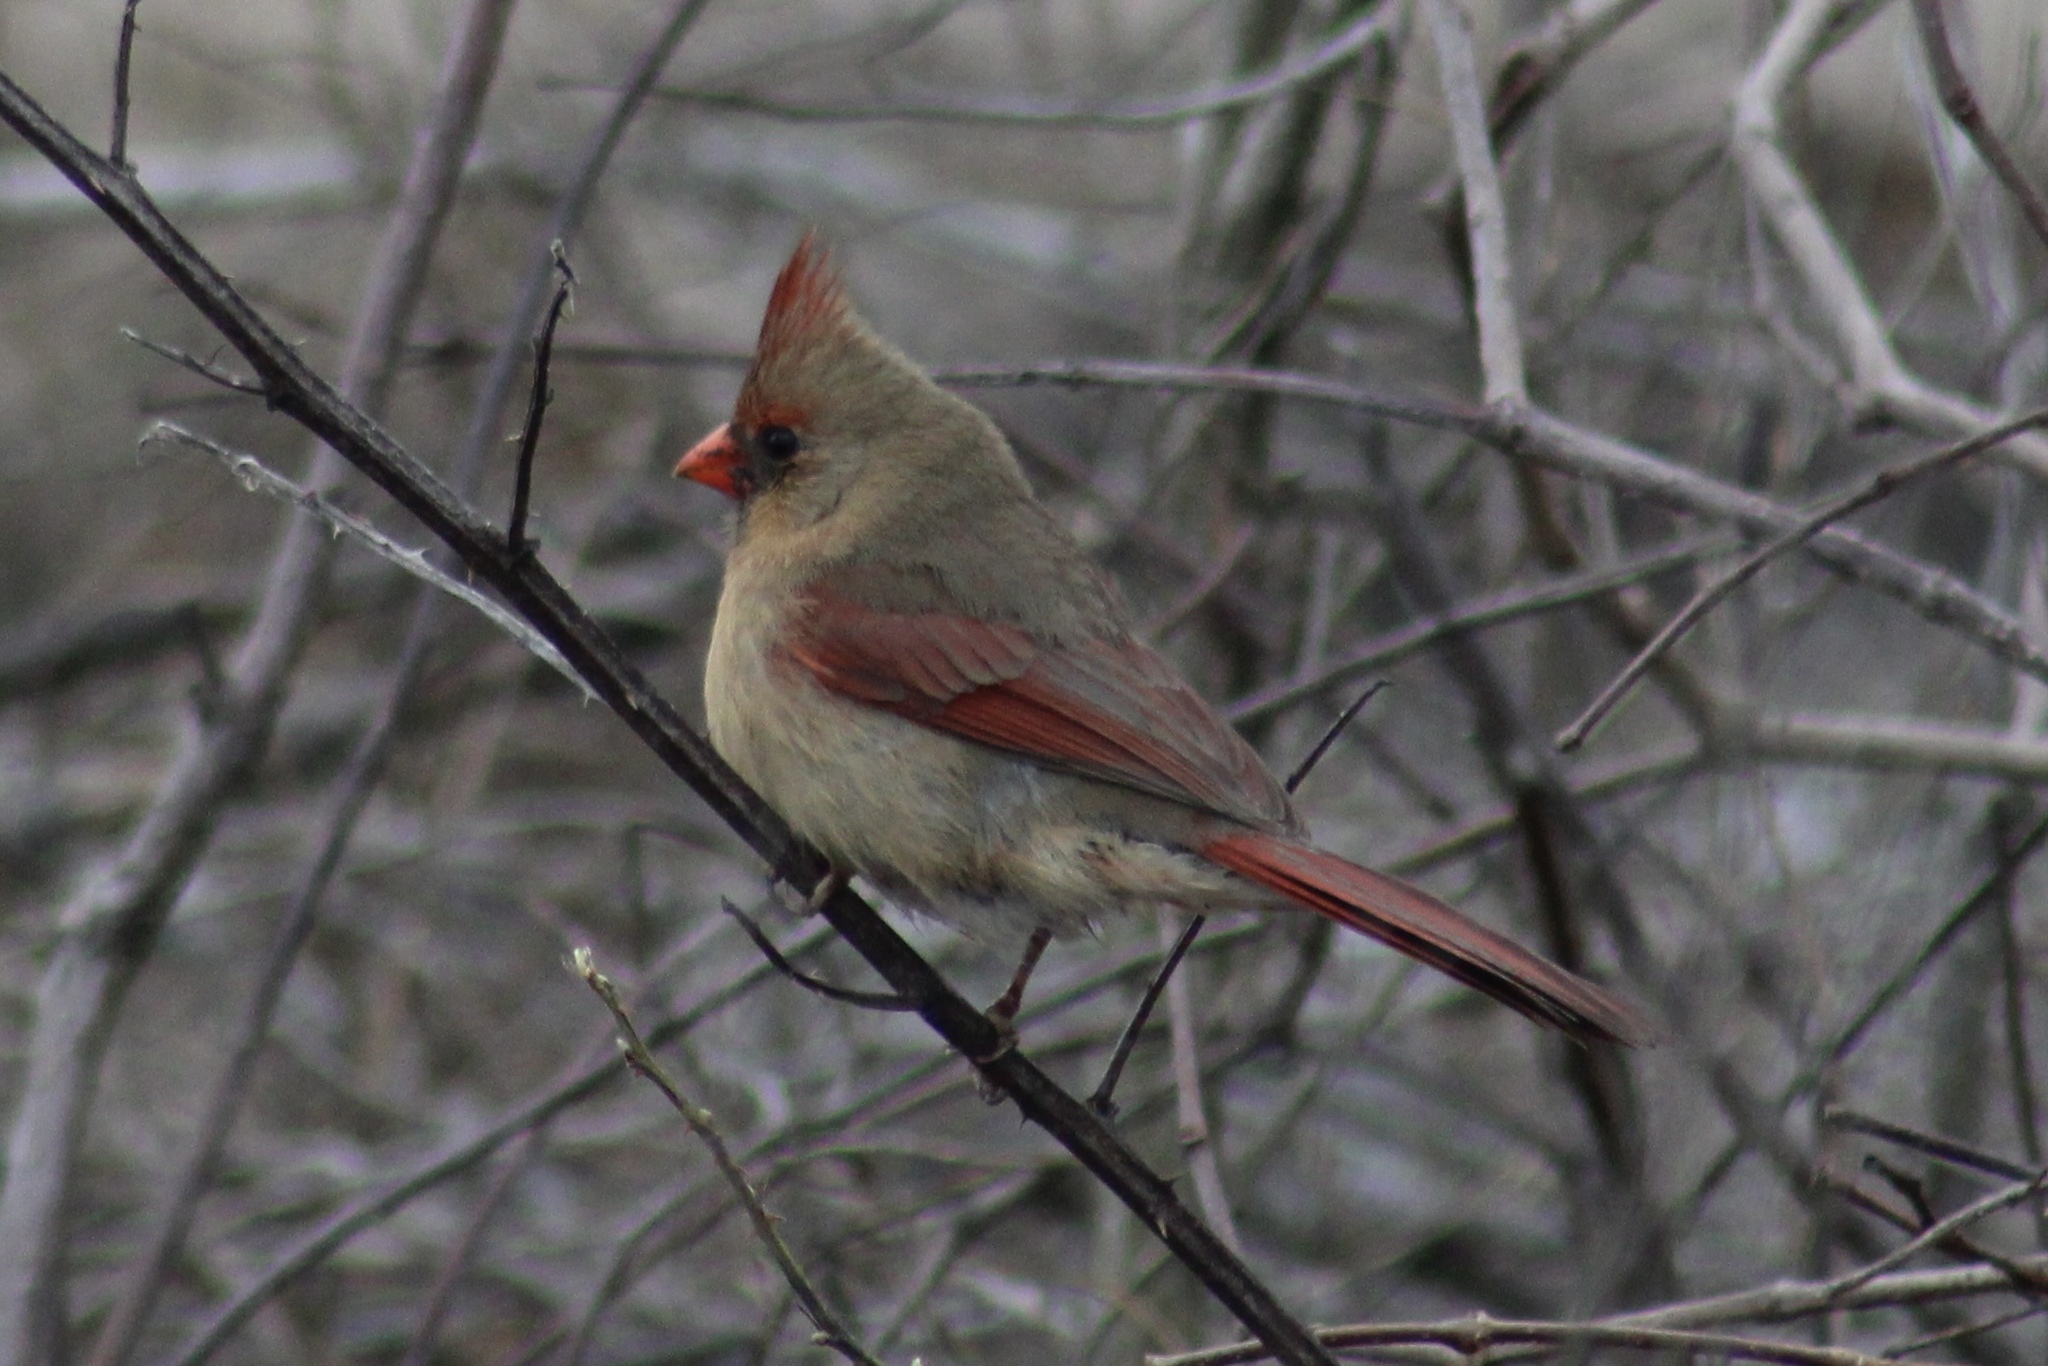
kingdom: Animalia
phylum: Chordata
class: Aves
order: Passeriformes
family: Cardinalidae
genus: Cardinalis
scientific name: Cardinalis cardinalis
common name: Northern cardinal
